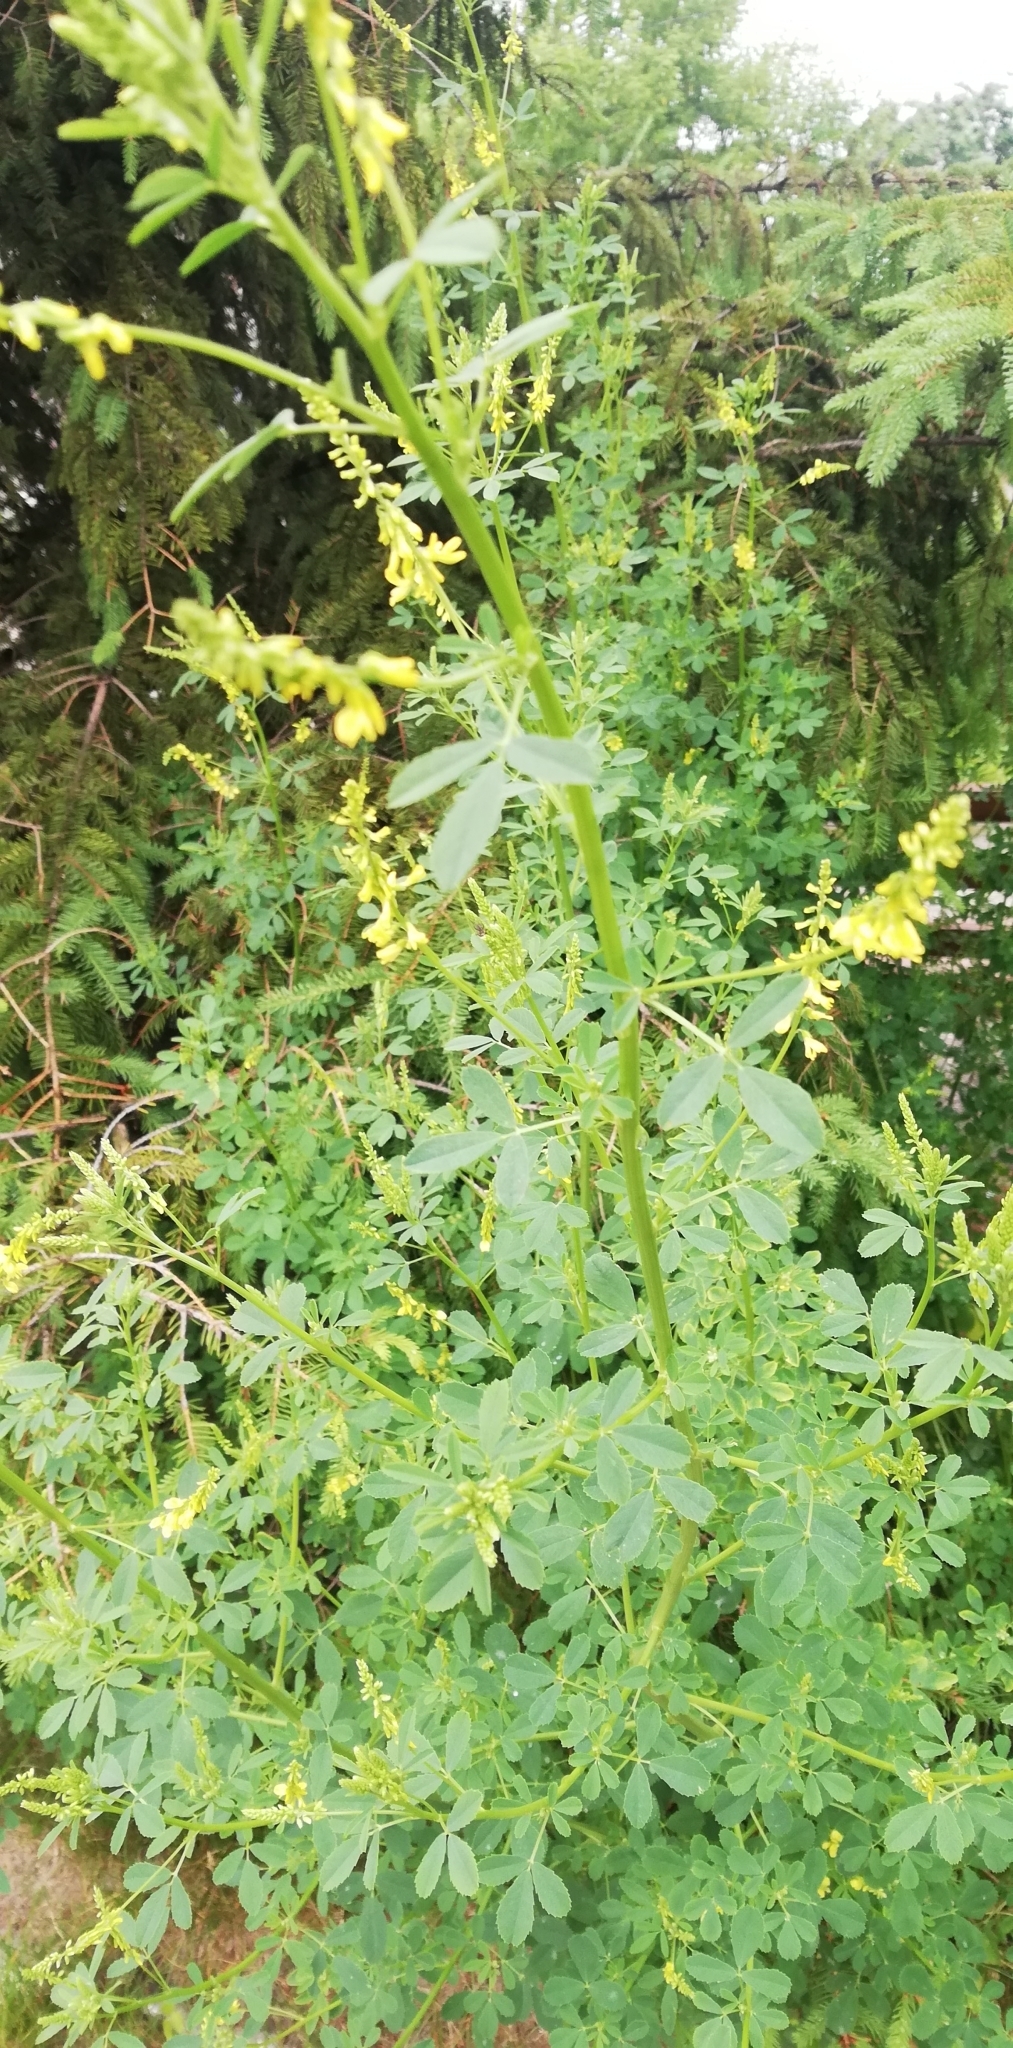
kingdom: Plantae
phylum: Tracheophyta
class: Magnoliopsida
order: Fabales
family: Fabaceae
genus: Melilotus
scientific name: Melilotus officinalis
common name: Sweetclover
